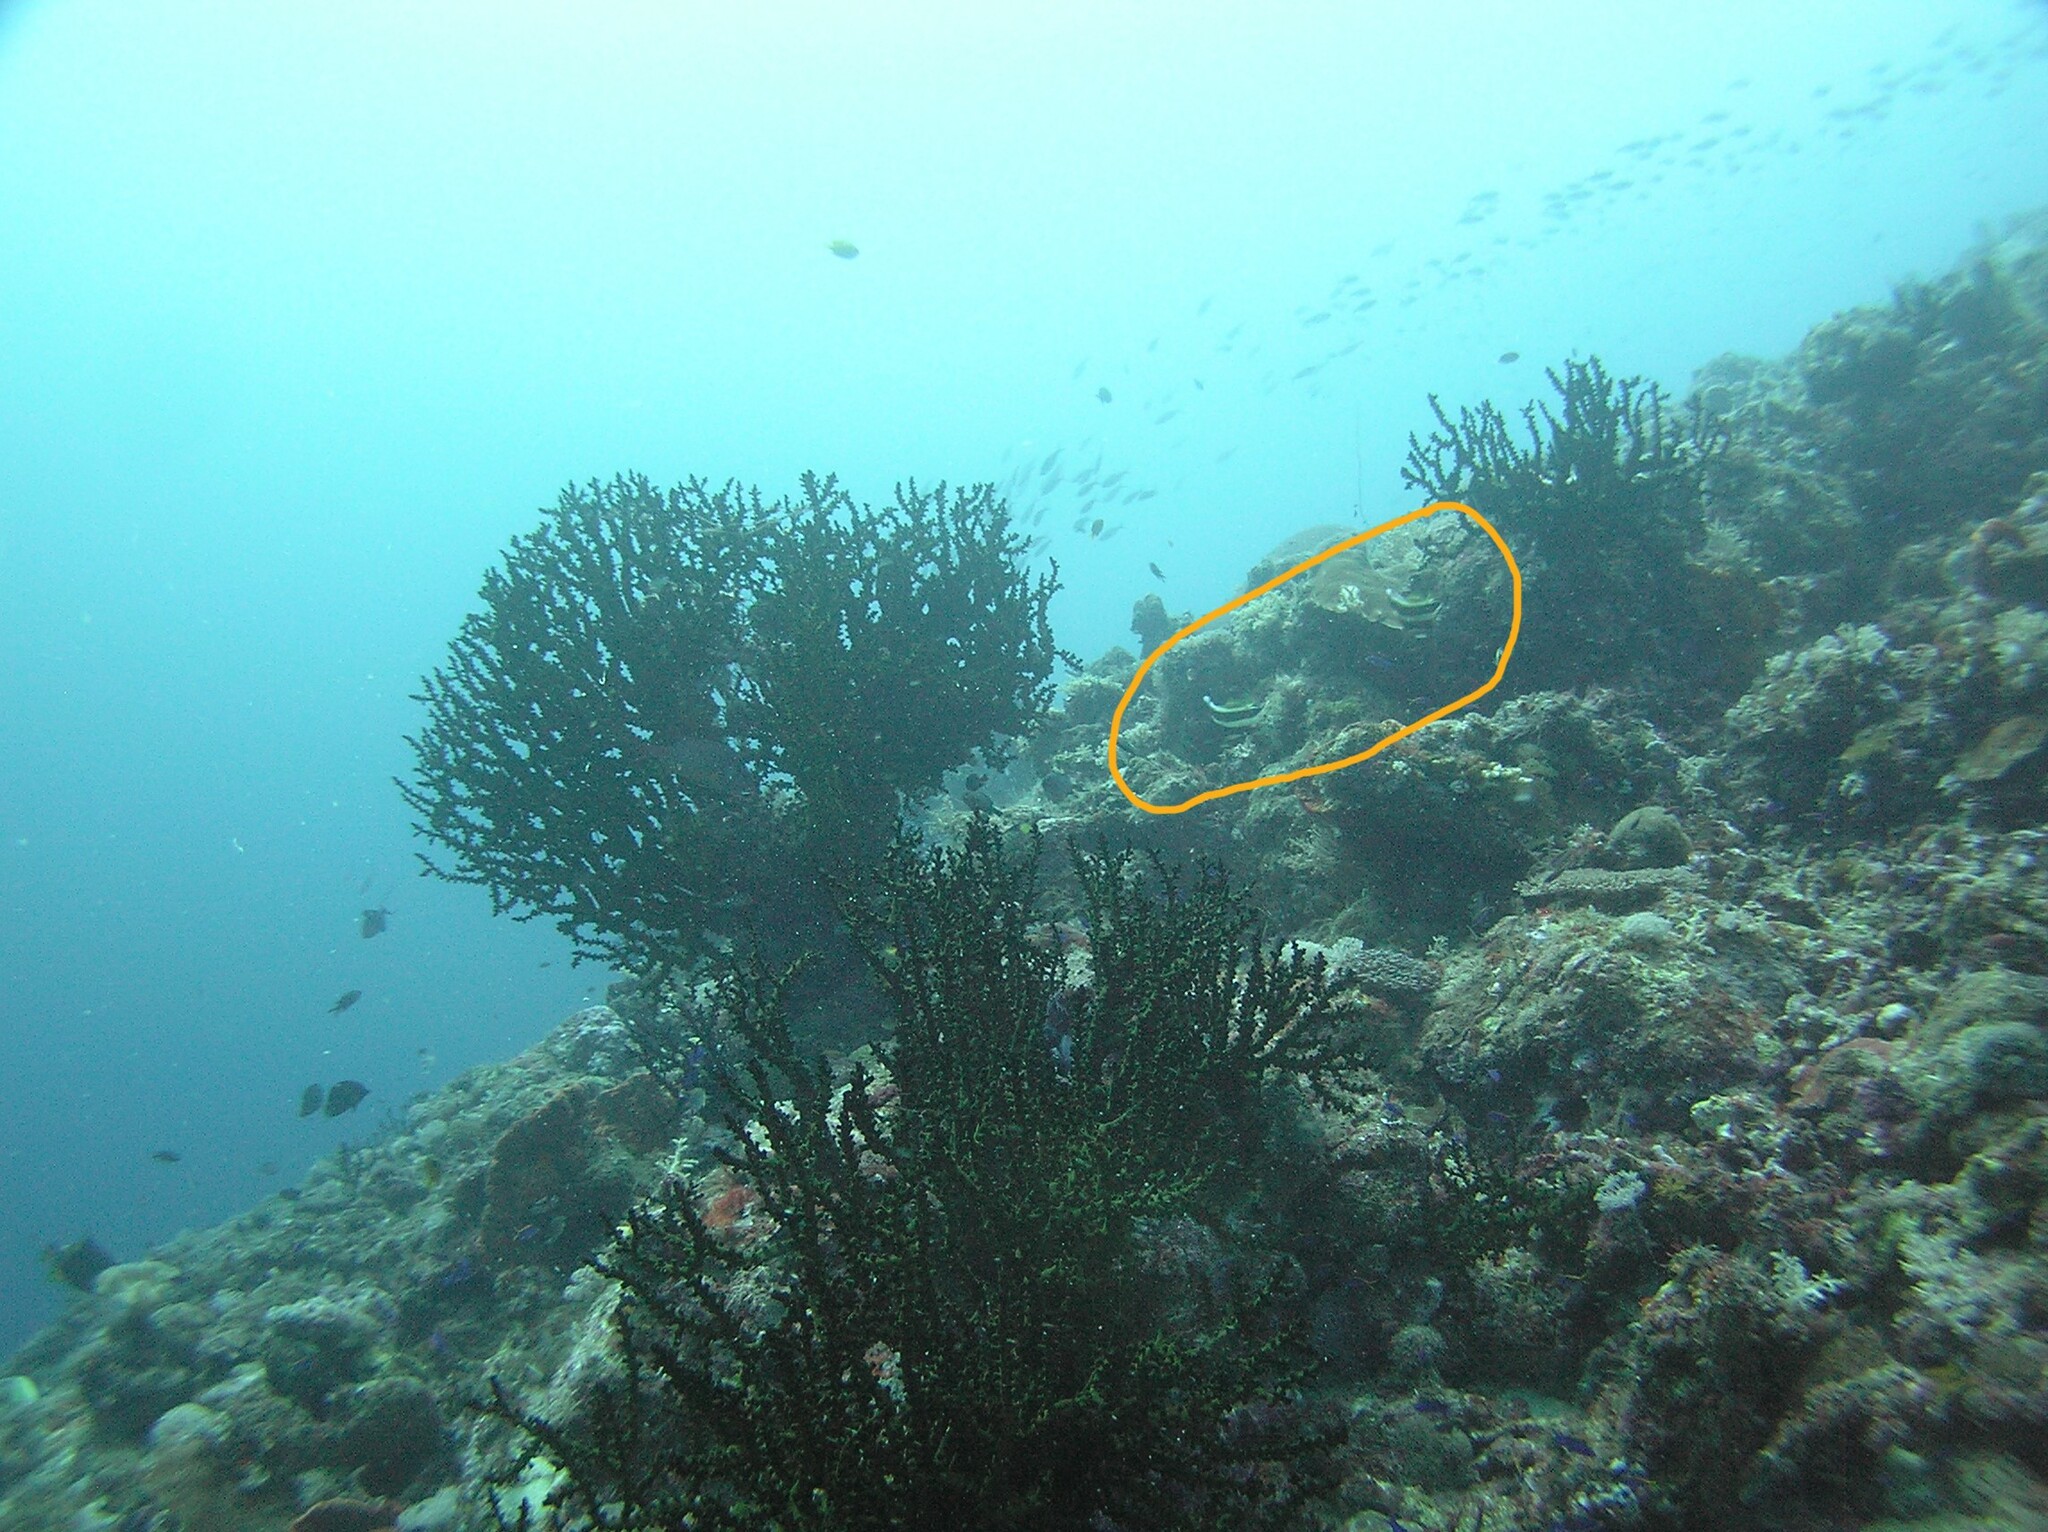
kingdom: Animalia
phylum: Chordata
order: Perciformes
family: Chaetodontidae
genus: Heniochus
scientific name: Heniochus chrysostomus
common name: Horned bannerfish
